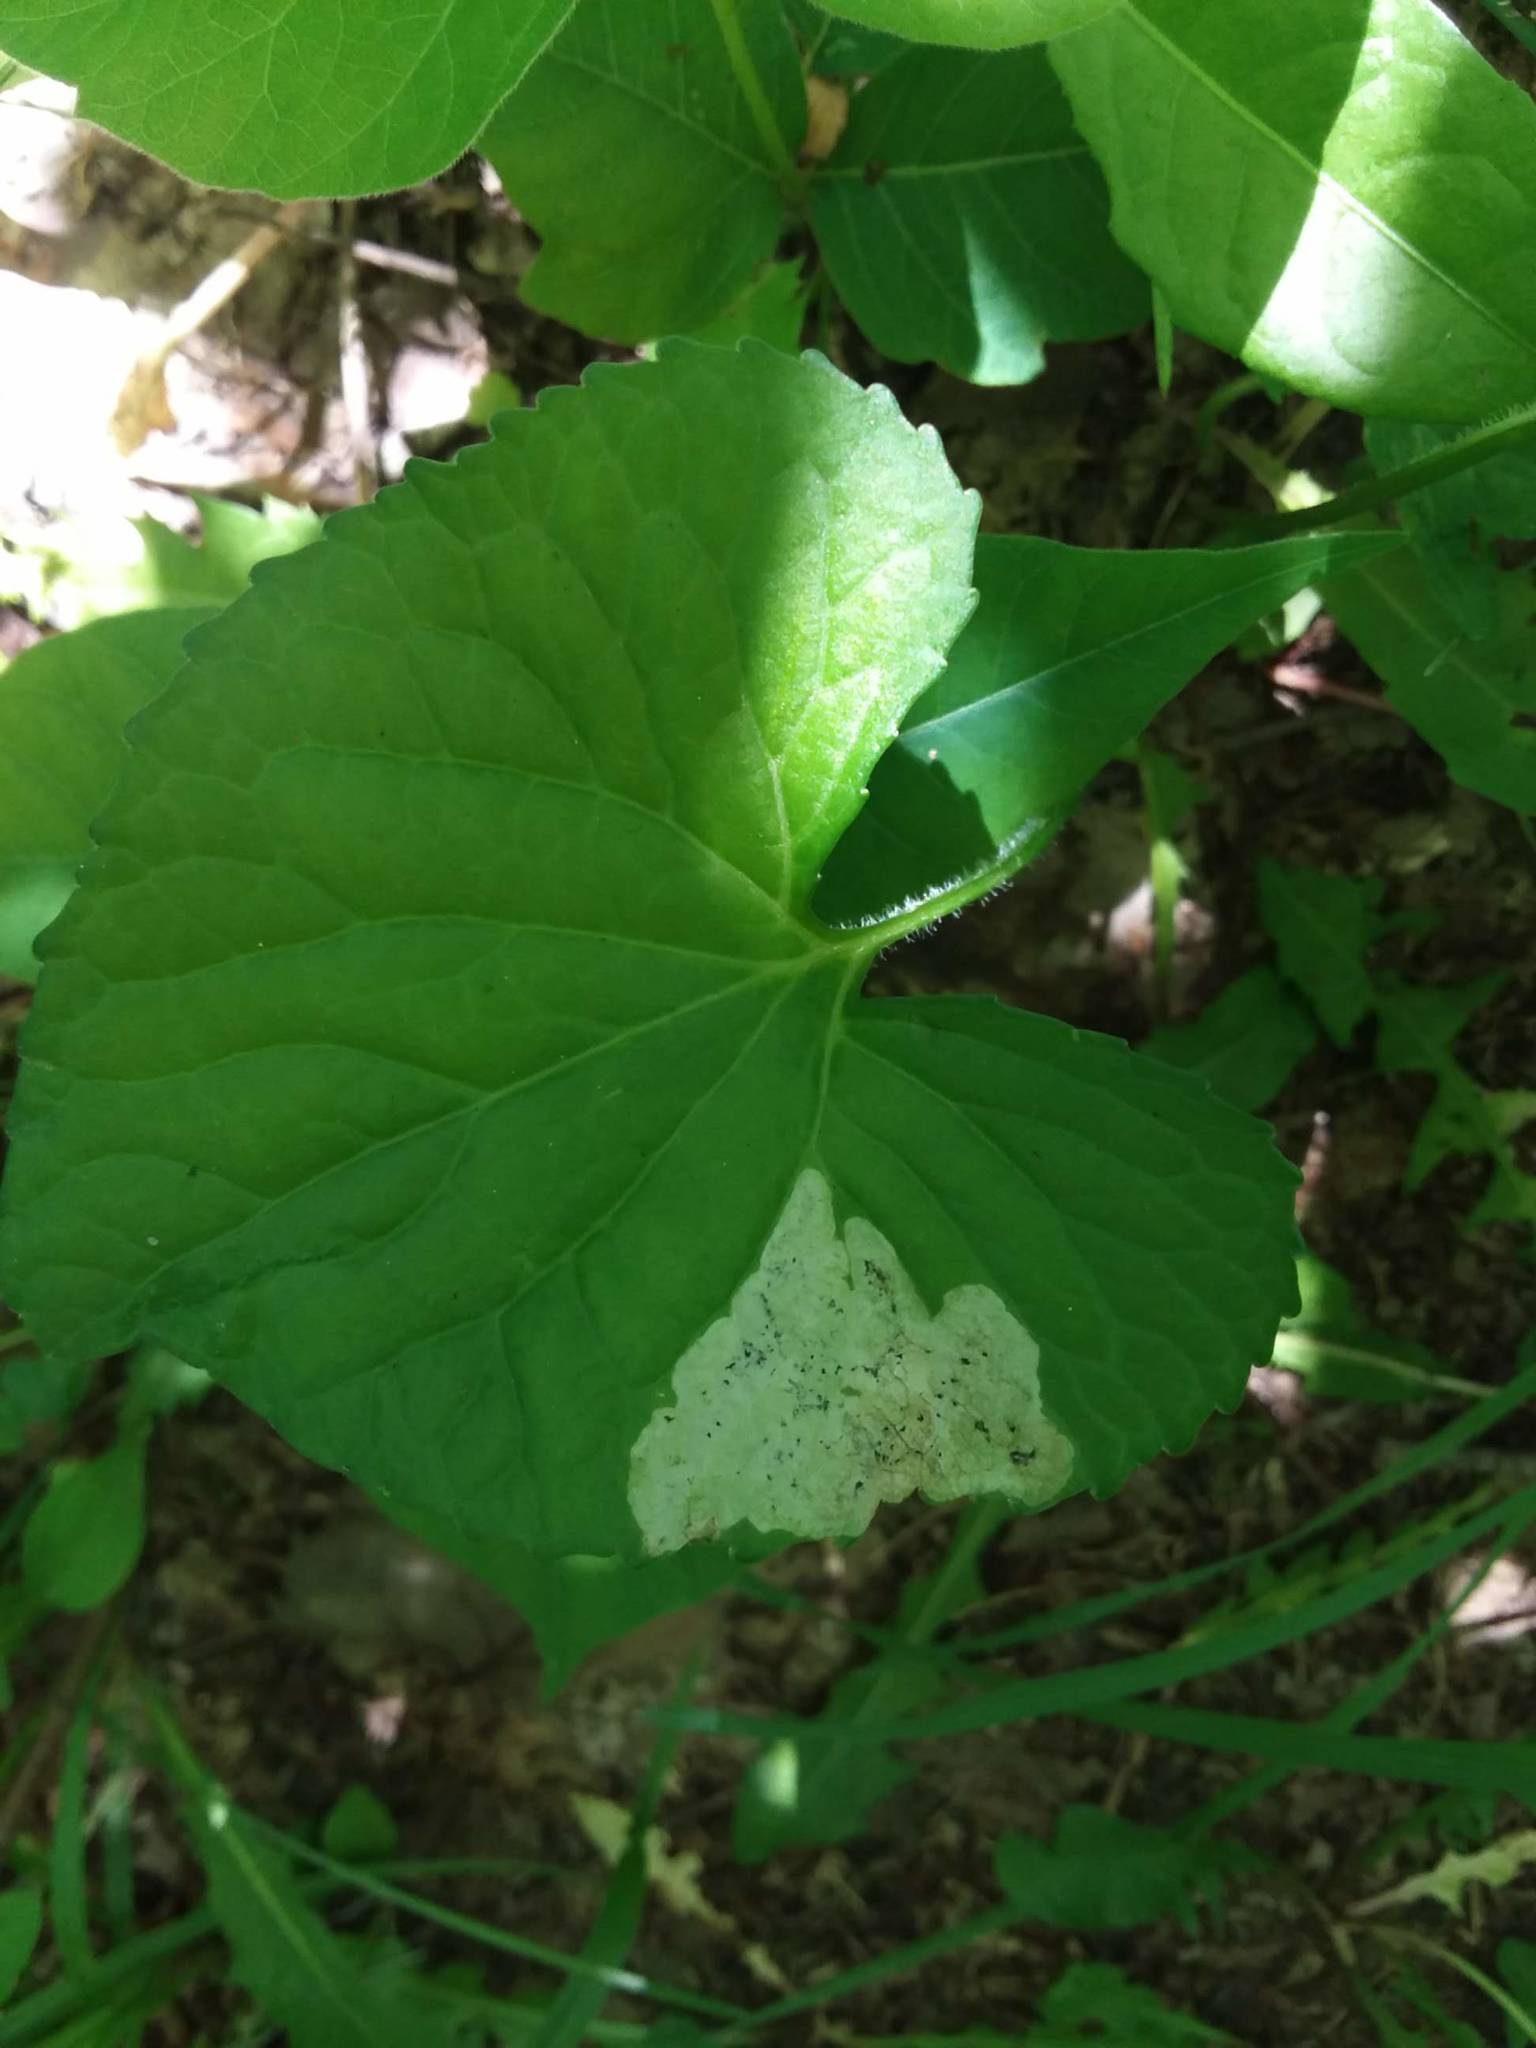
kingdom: Animalia
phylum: Arthropoda
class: Insecta
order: Diptera
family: Agromyzidae
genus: Liriomyza
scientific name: Liriomyza violivora
